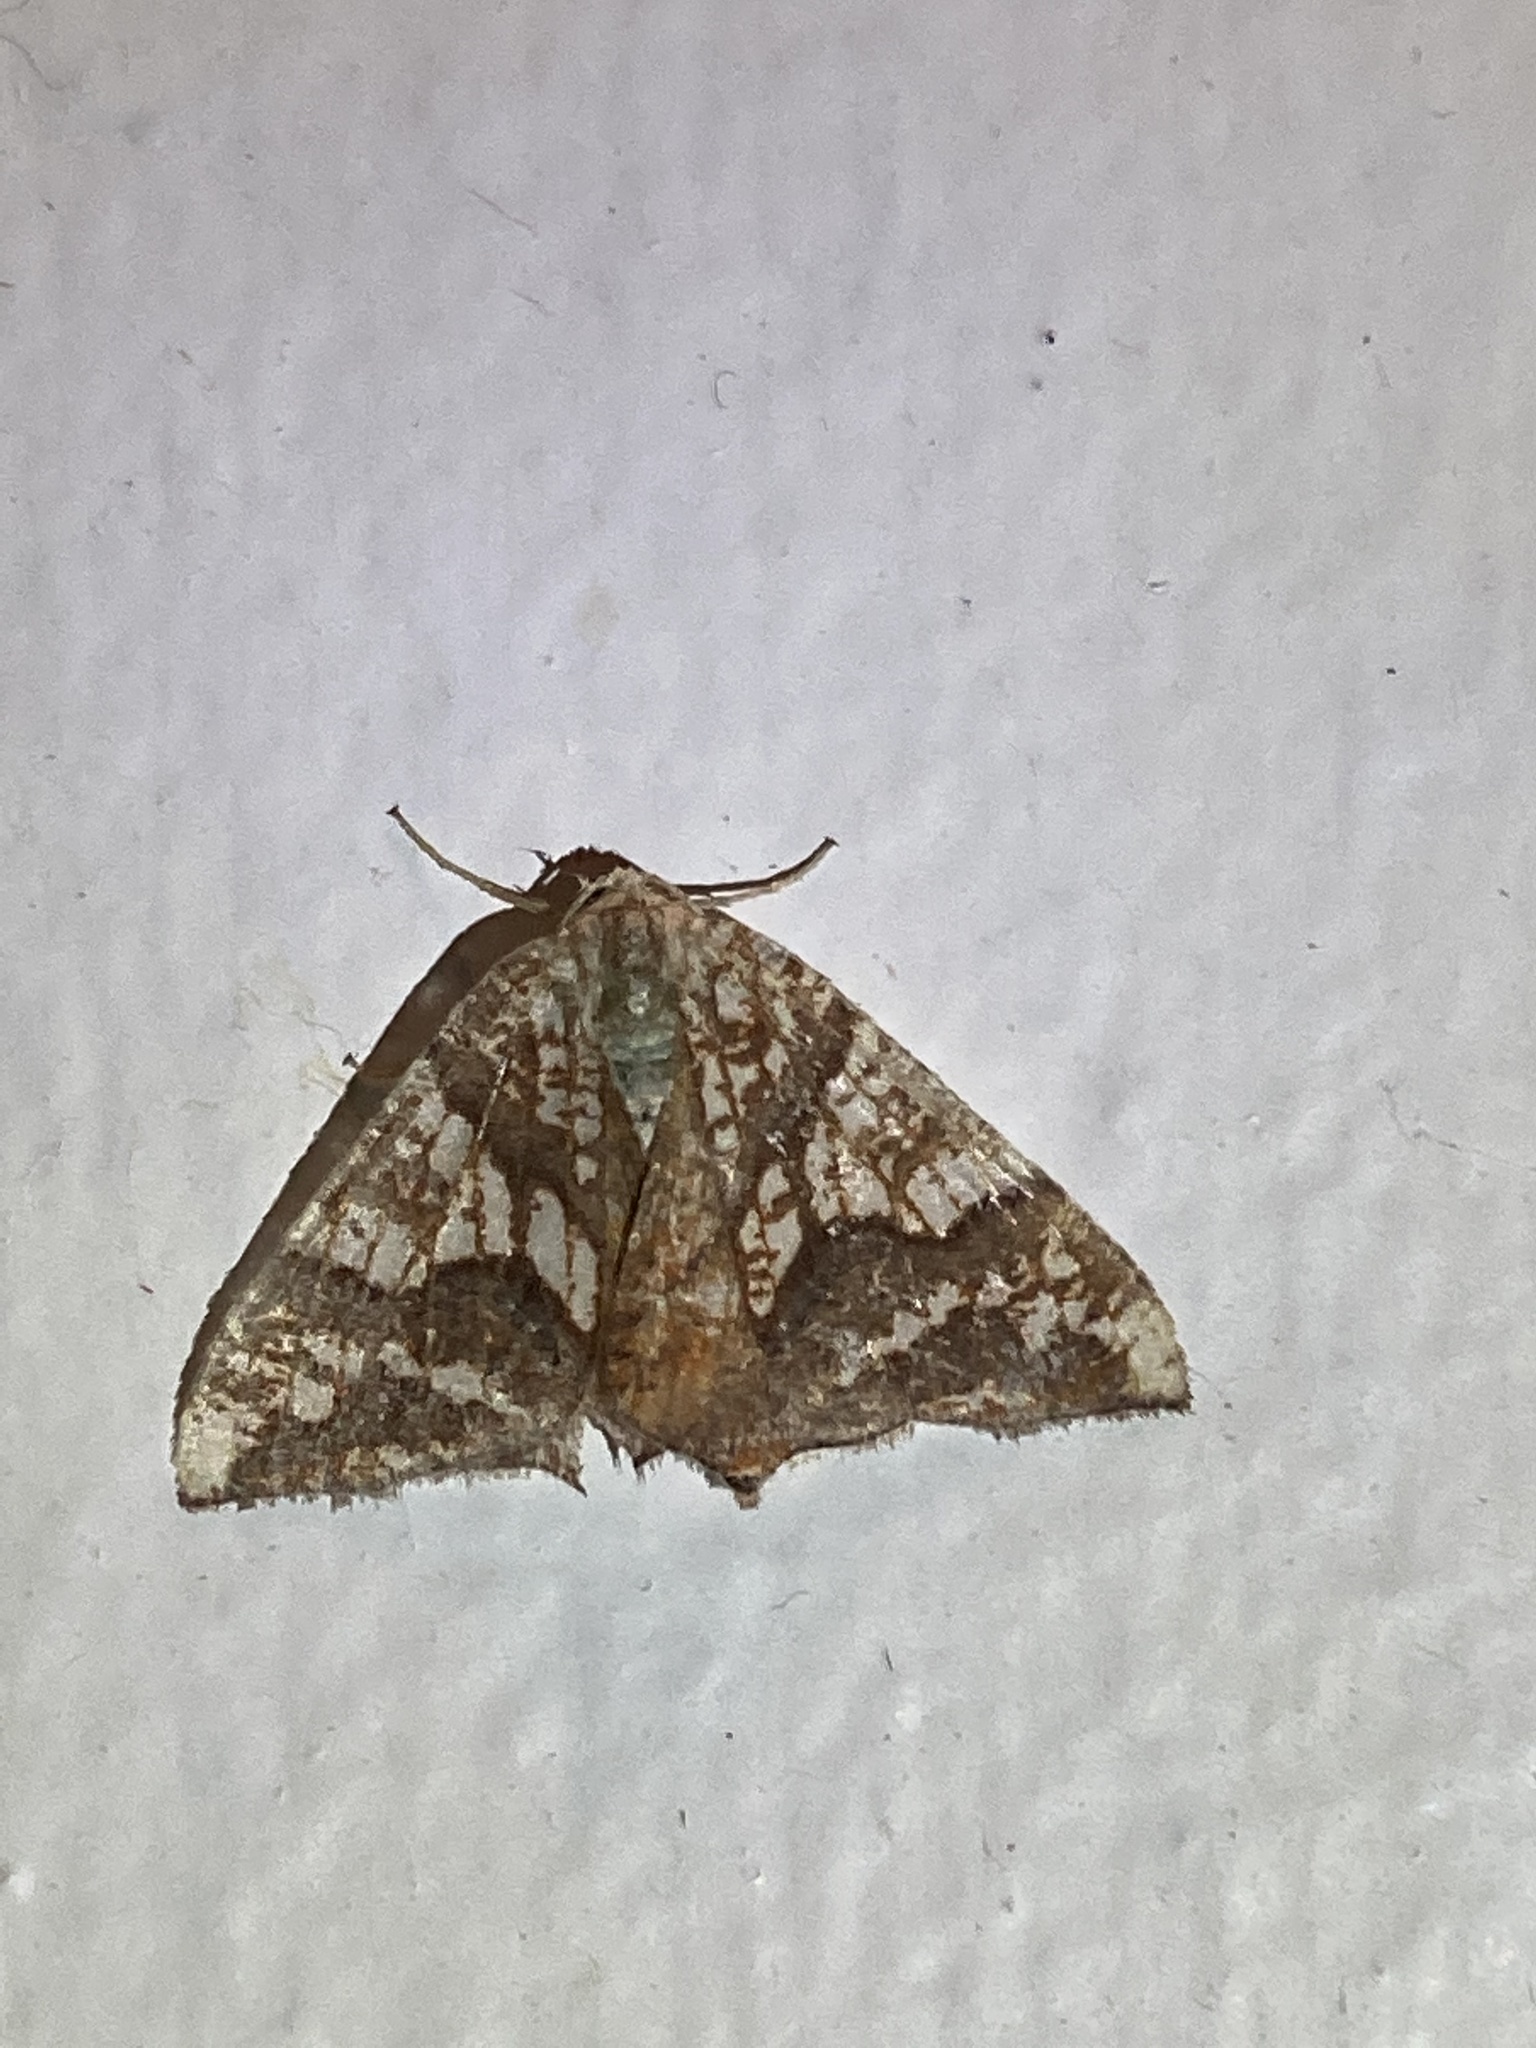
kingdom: Animalia
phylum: Arthropoda
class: Insecta
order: Lepidoptera
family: Geometridae
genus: Rindgeria
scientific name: Rindgeria ornata
